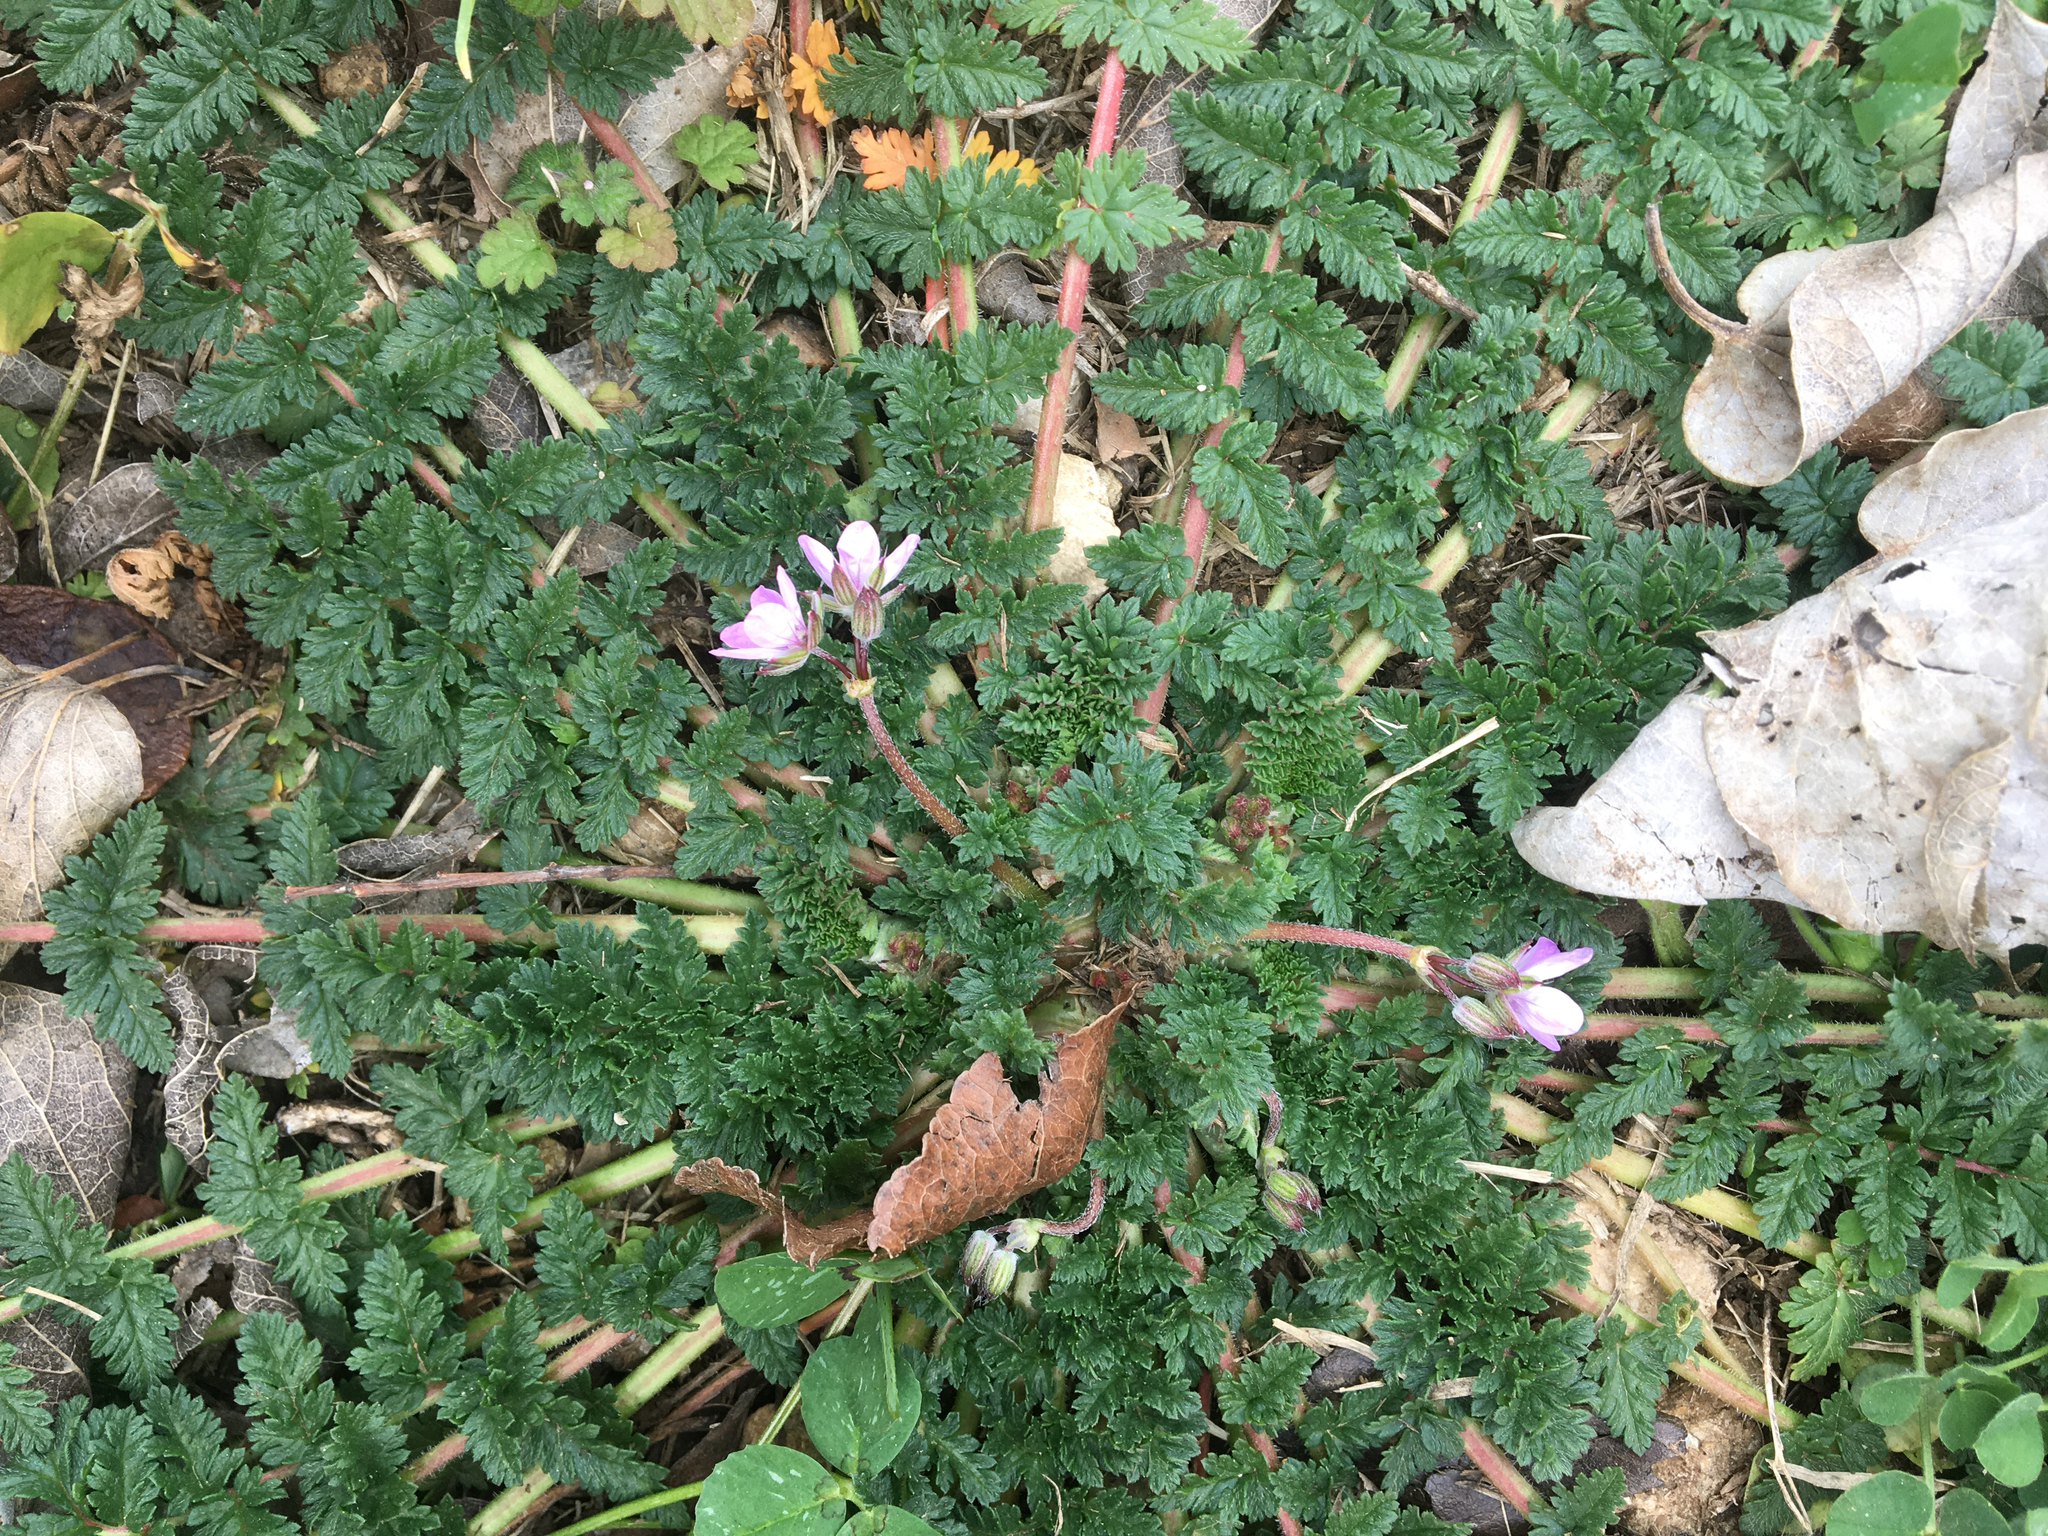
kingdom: Plantae
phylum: Tracheophyta
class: Magnoliopsida
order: Geraniales
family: Geraniaceae
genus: Erodium
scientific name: Erodium cicutarium
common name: Common stork's-bill
